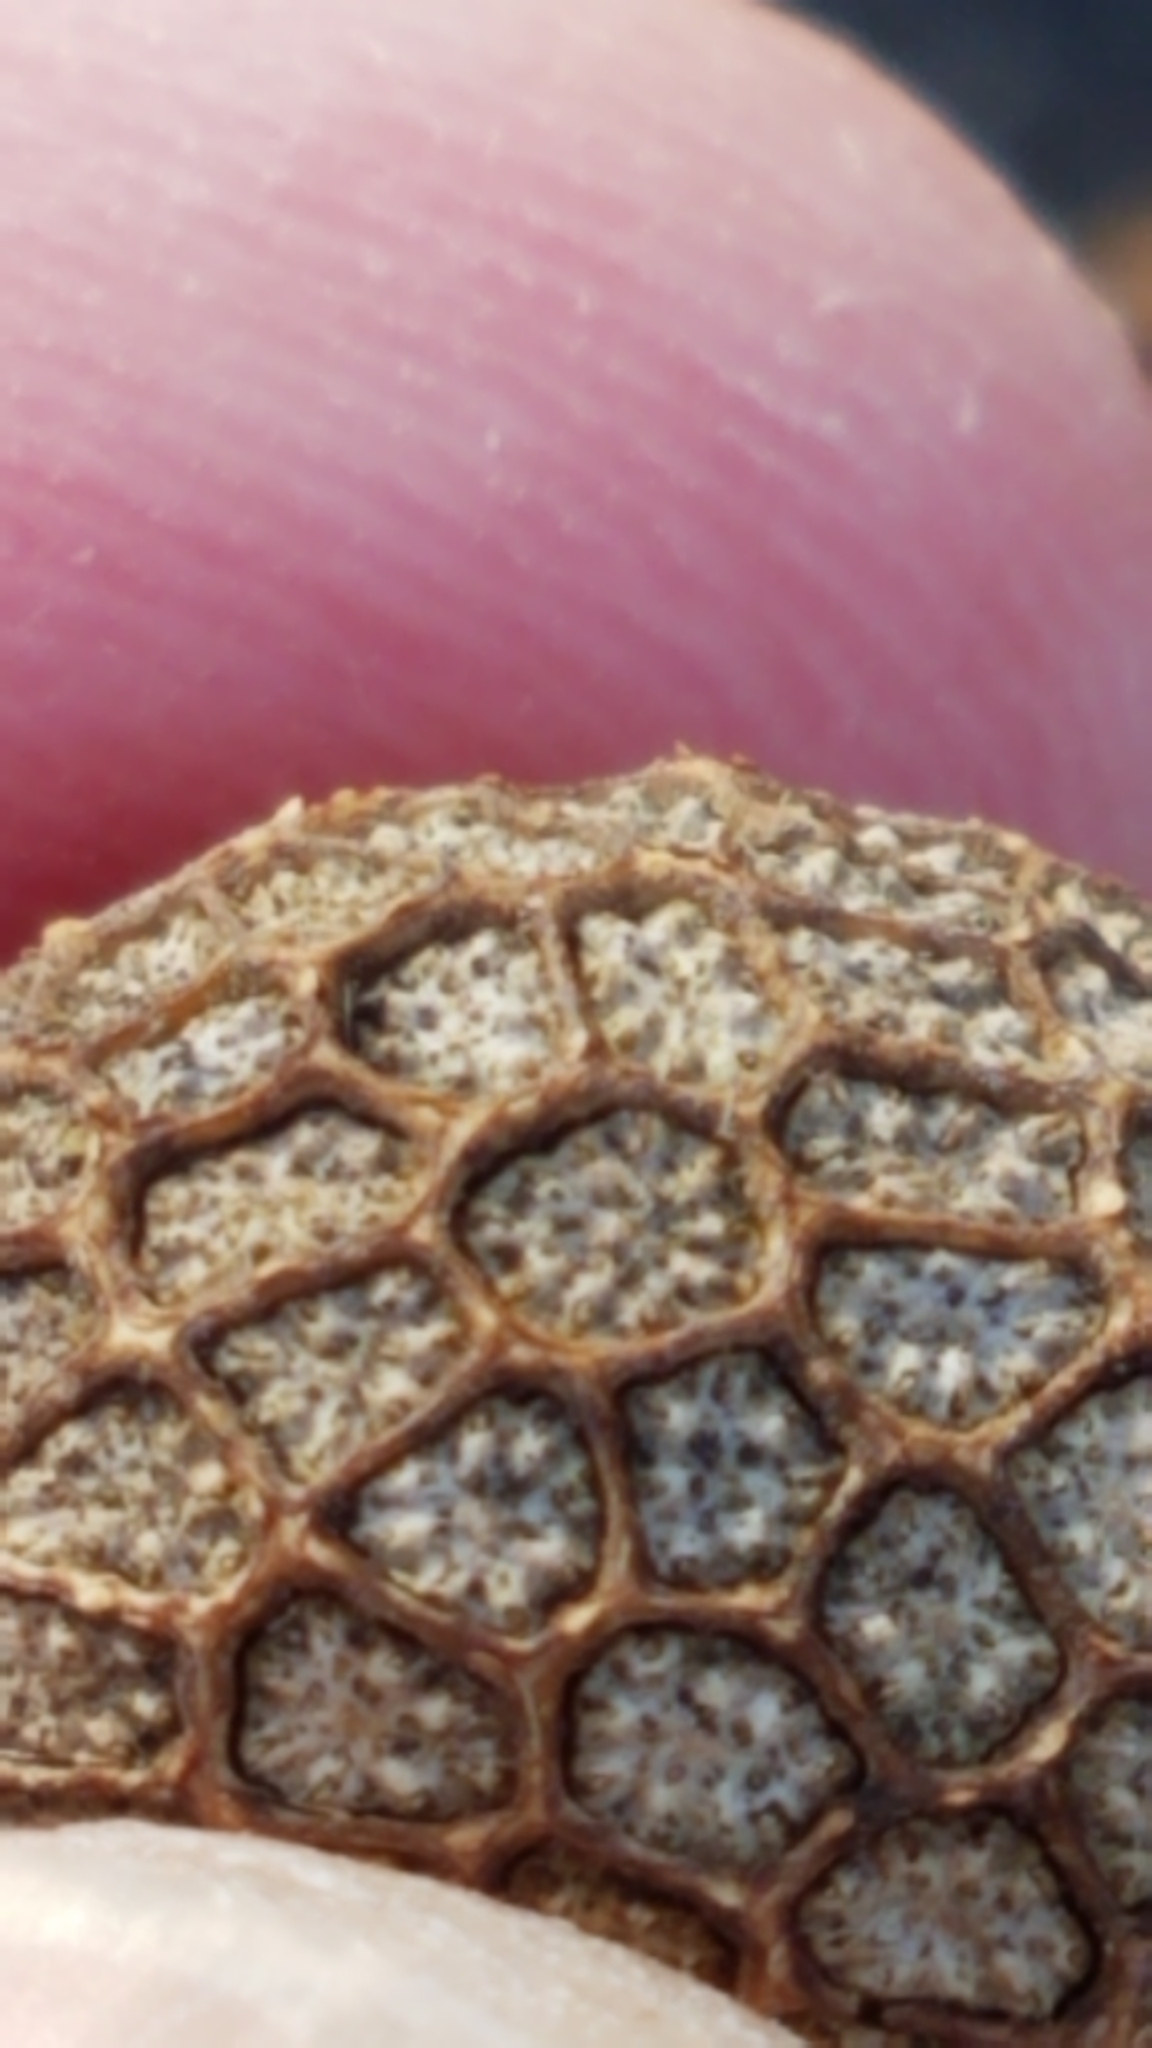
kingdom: Plantae
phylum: Tracheophyta
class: Magnoliopsida
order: Proteales
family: Platanaceae
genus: Platanus
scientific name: Platanus occidentalis
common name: American sycamore
